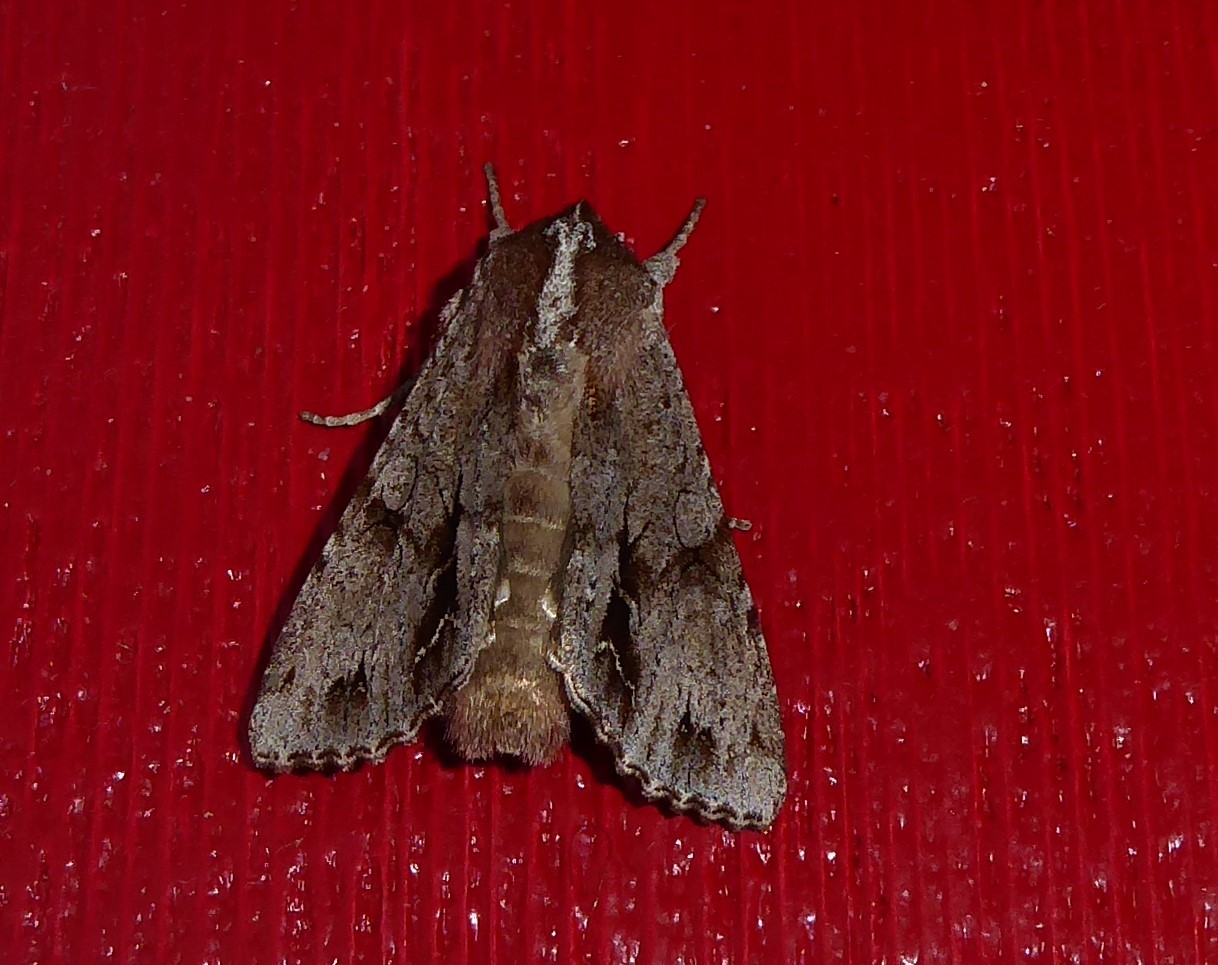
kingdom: Animalia
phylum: Arthropoda
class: Insecta
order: Lepidoptera
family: Noctuidae
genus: Ichneutica
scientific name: Ichneutica
